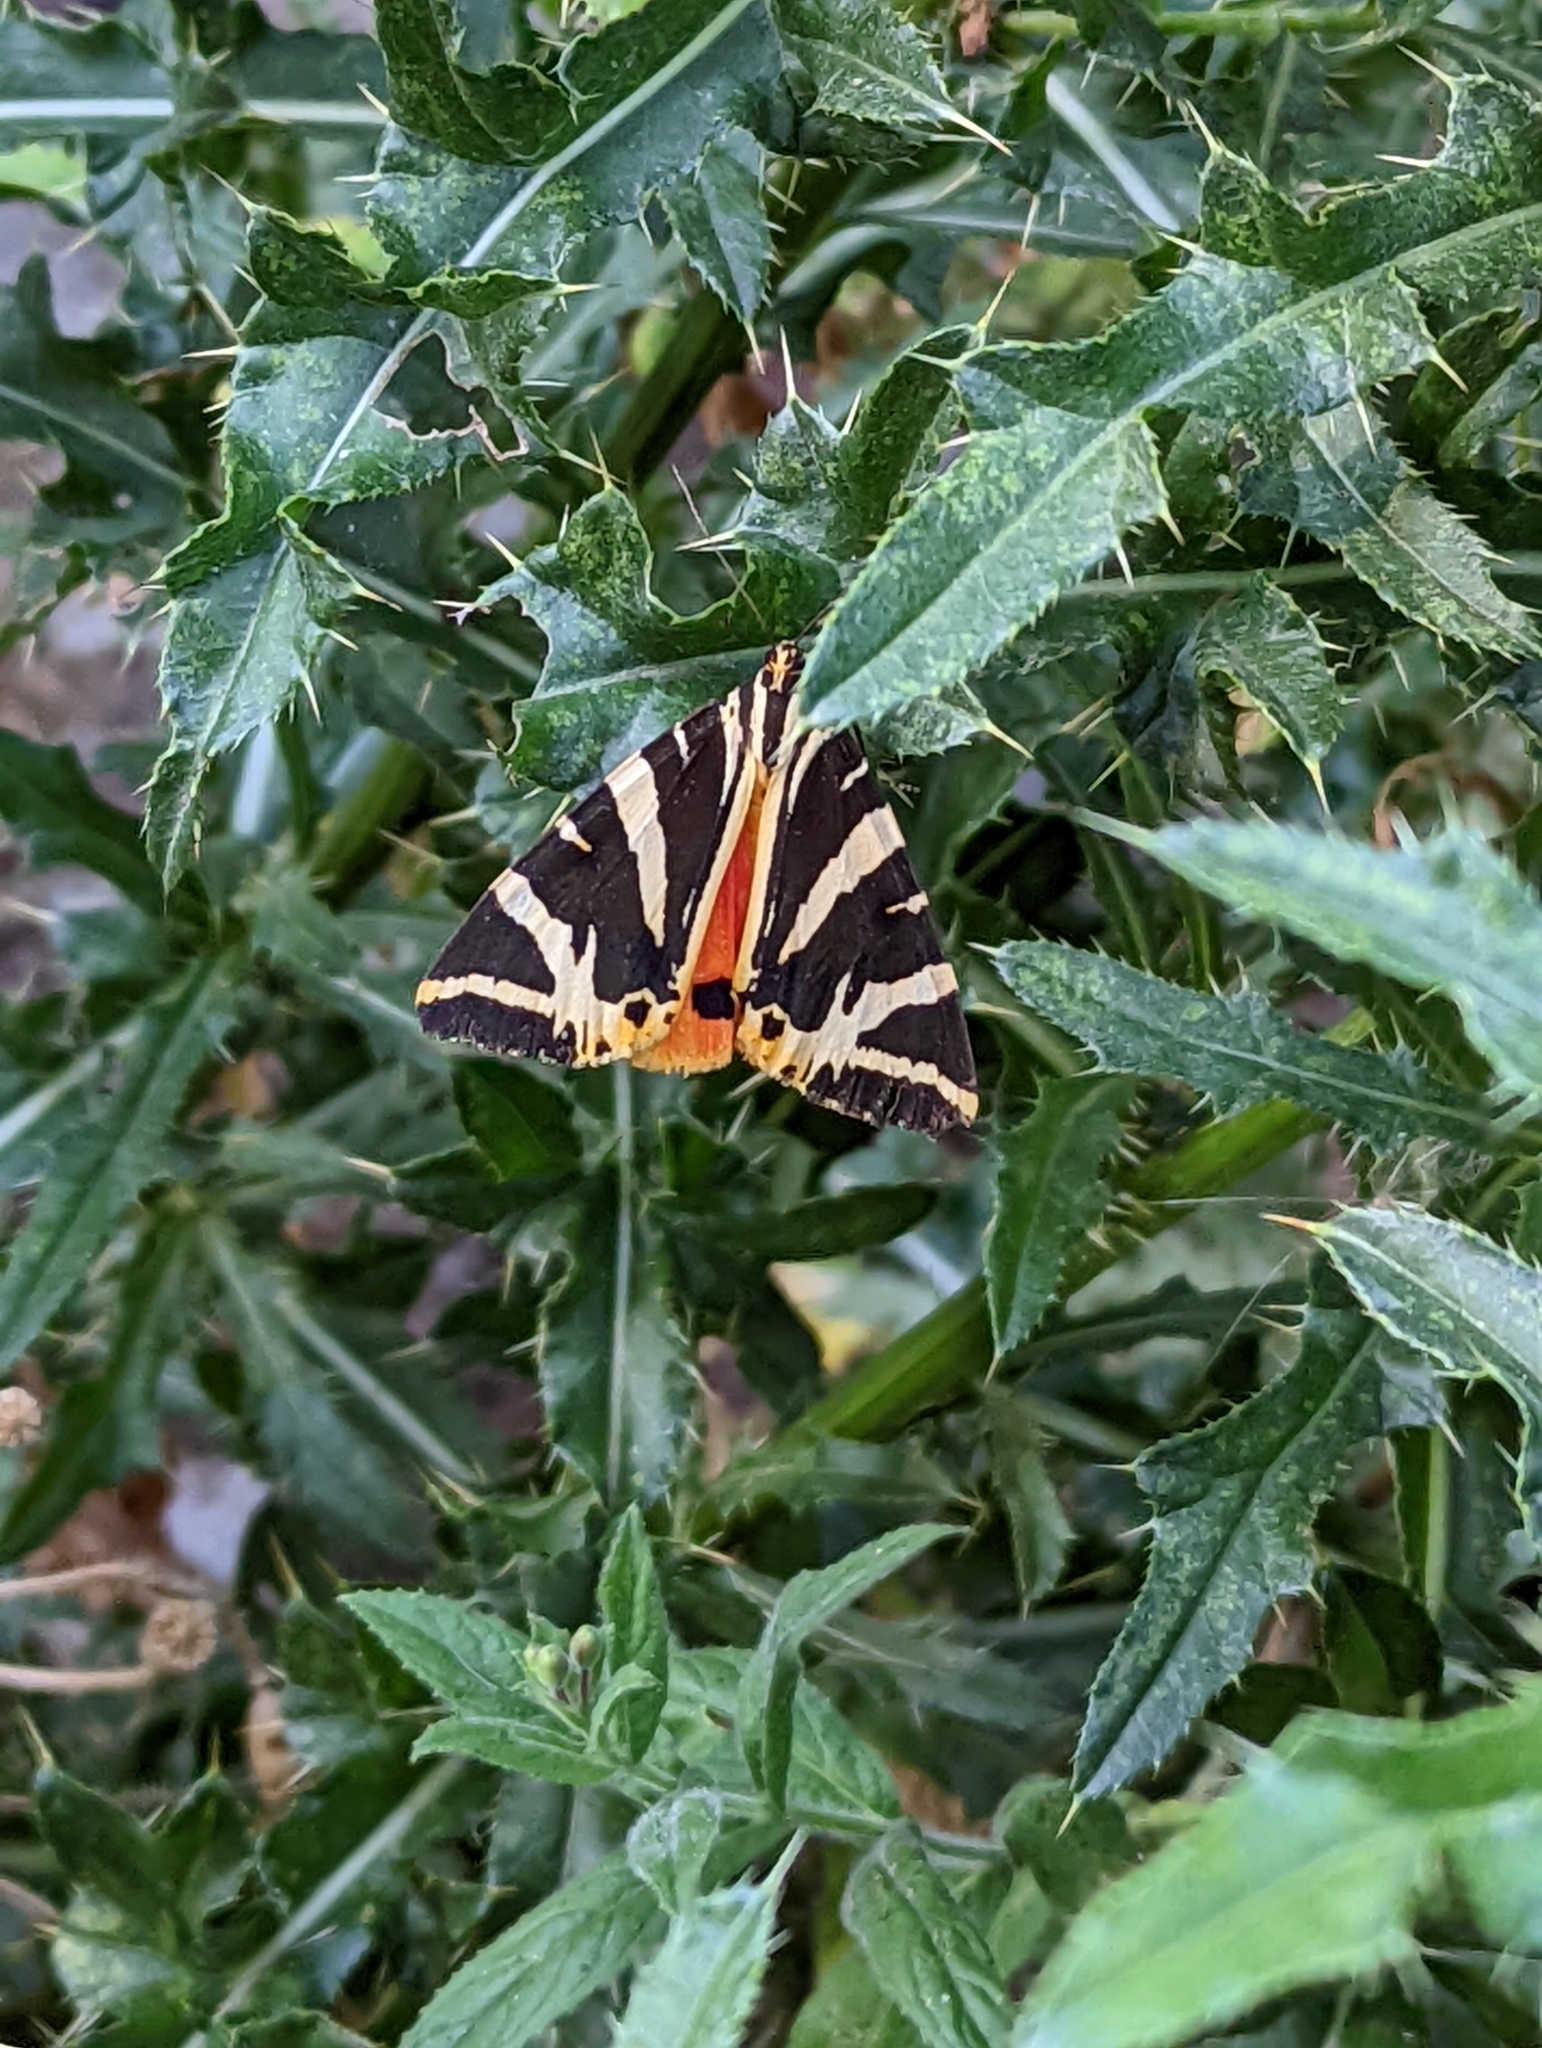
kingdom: Animalia
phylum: Arthropoda
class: Insecta
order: Lepidoptera
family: Erebidae
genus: Euplagia
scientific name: Euplagia quadripunctaria
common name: Jersey tiger
